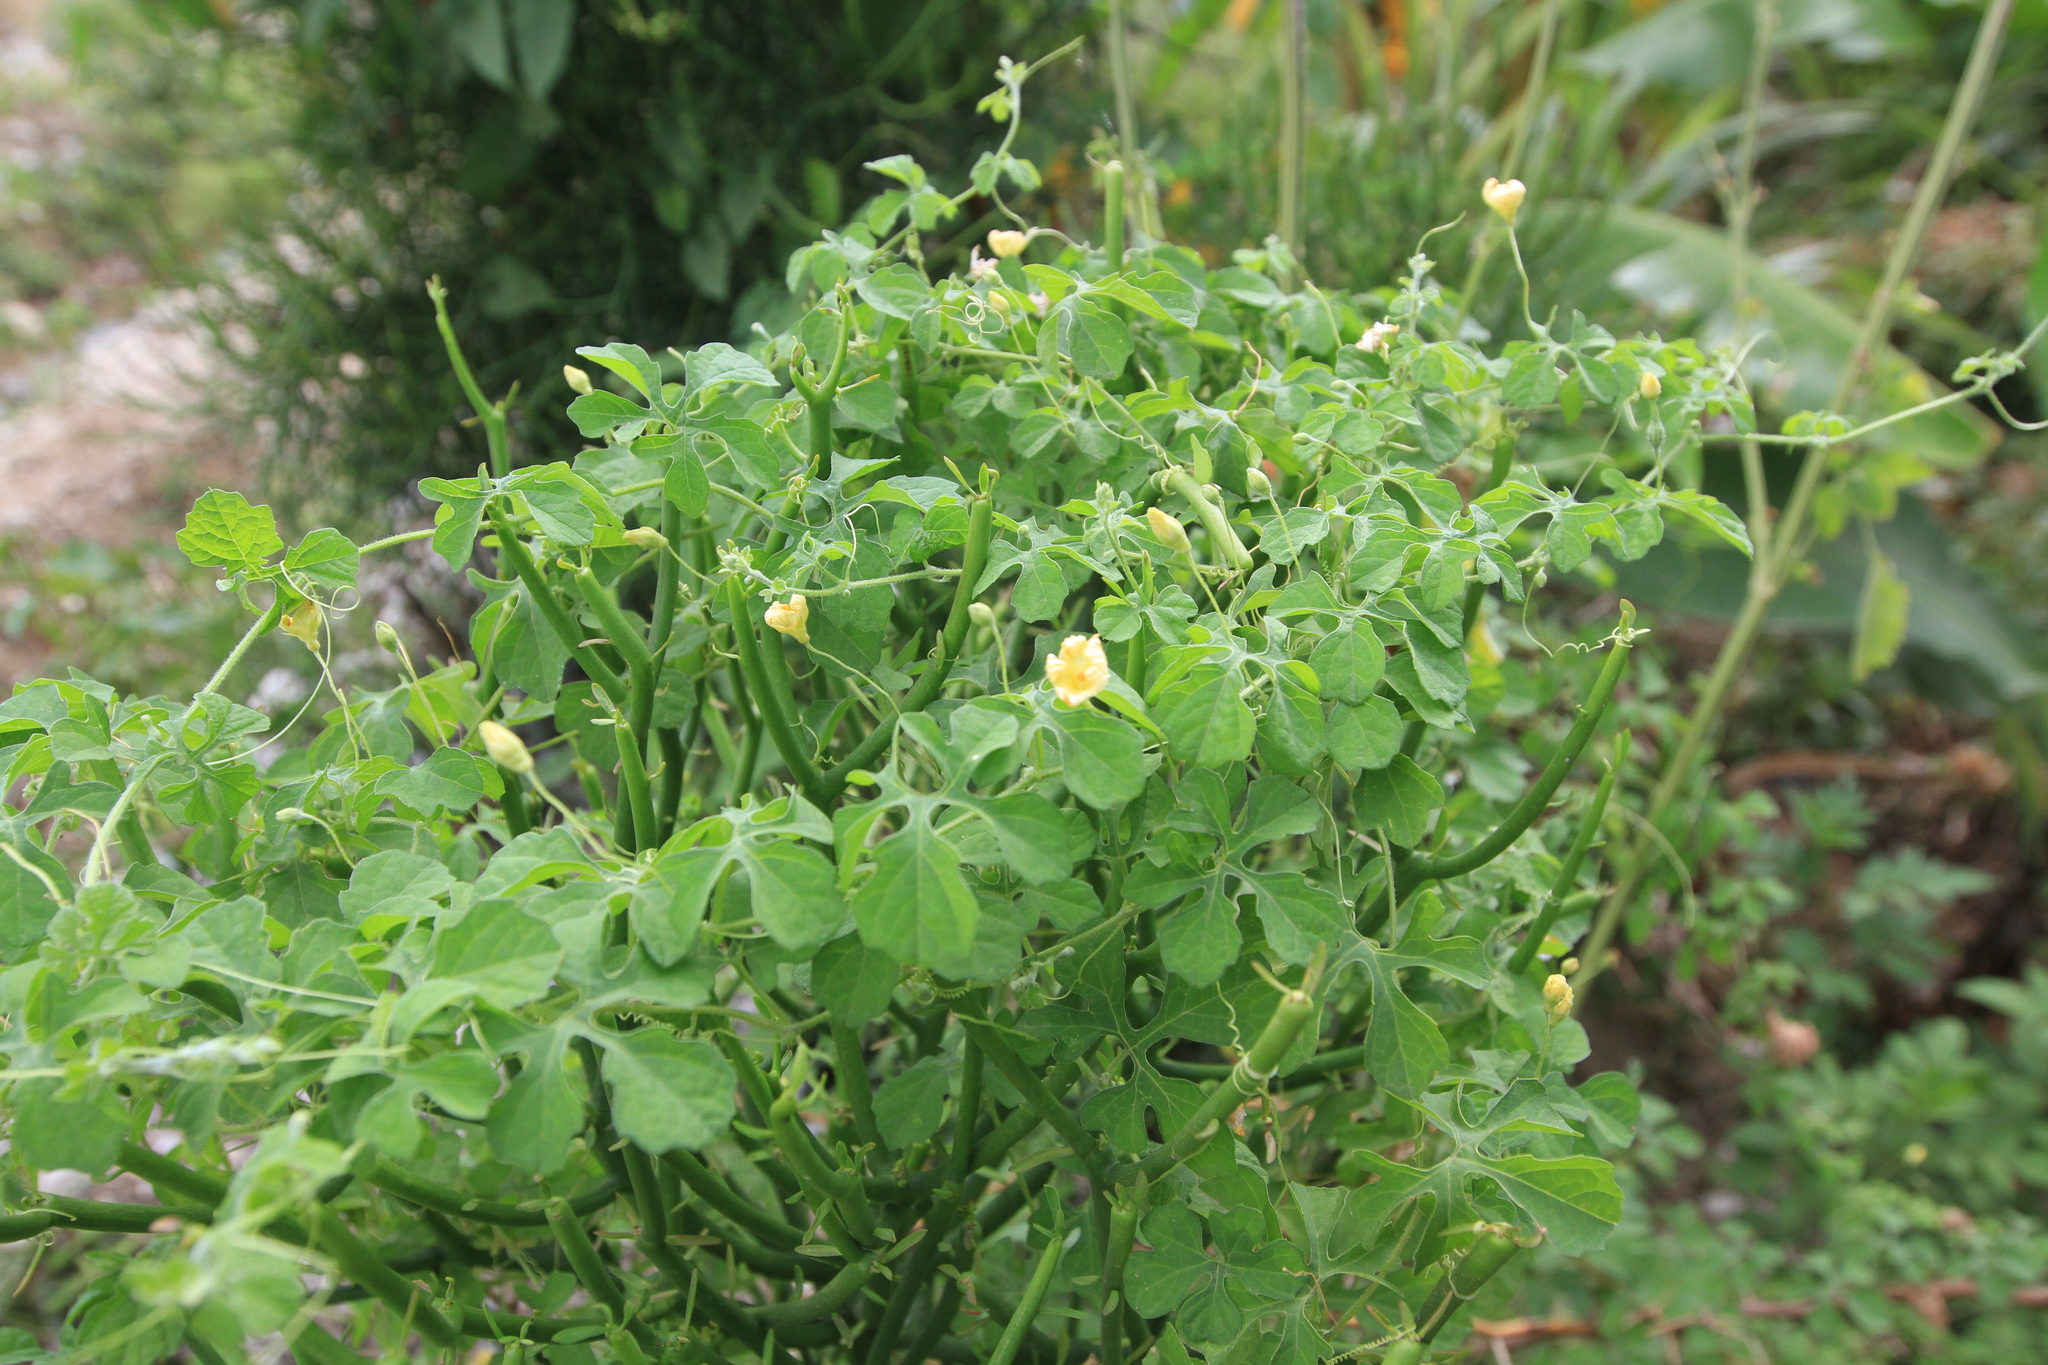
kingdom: Plantae
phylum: Tracheophyta
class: Magnoliopsida
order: Cucurbitales
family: Cucurbitaceae
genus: Momordica
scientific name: Momordica charantia
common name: Balsampear
